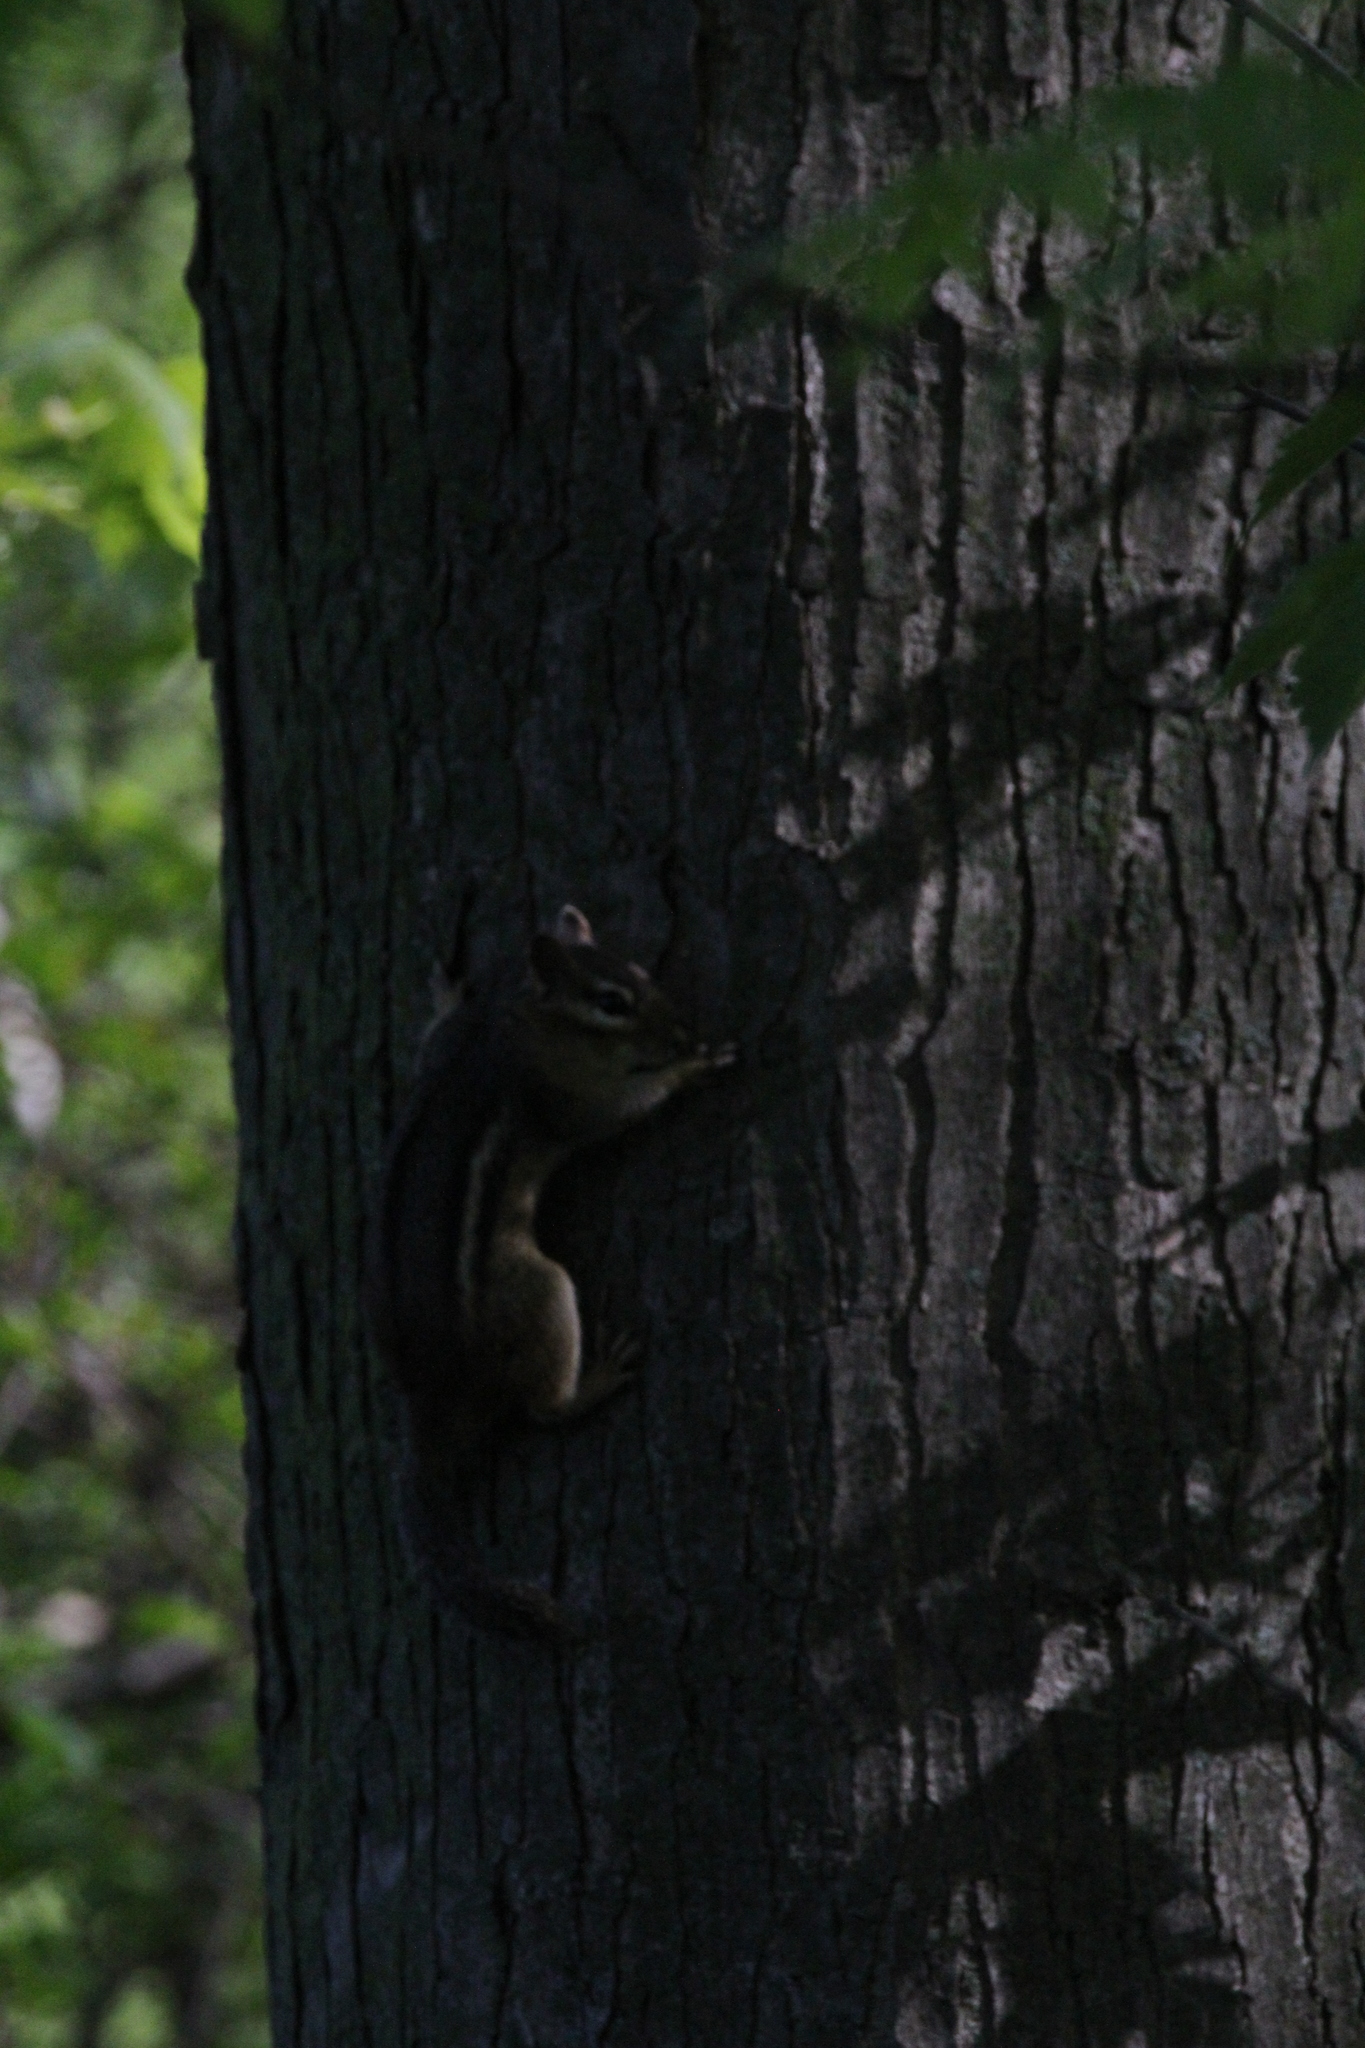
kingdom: Animalia
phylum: Chordata
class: Mammalia
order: Rodentia
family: Sciuridae
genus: Tamias
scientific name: Tamias striatus
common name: Eastern chipmunk
